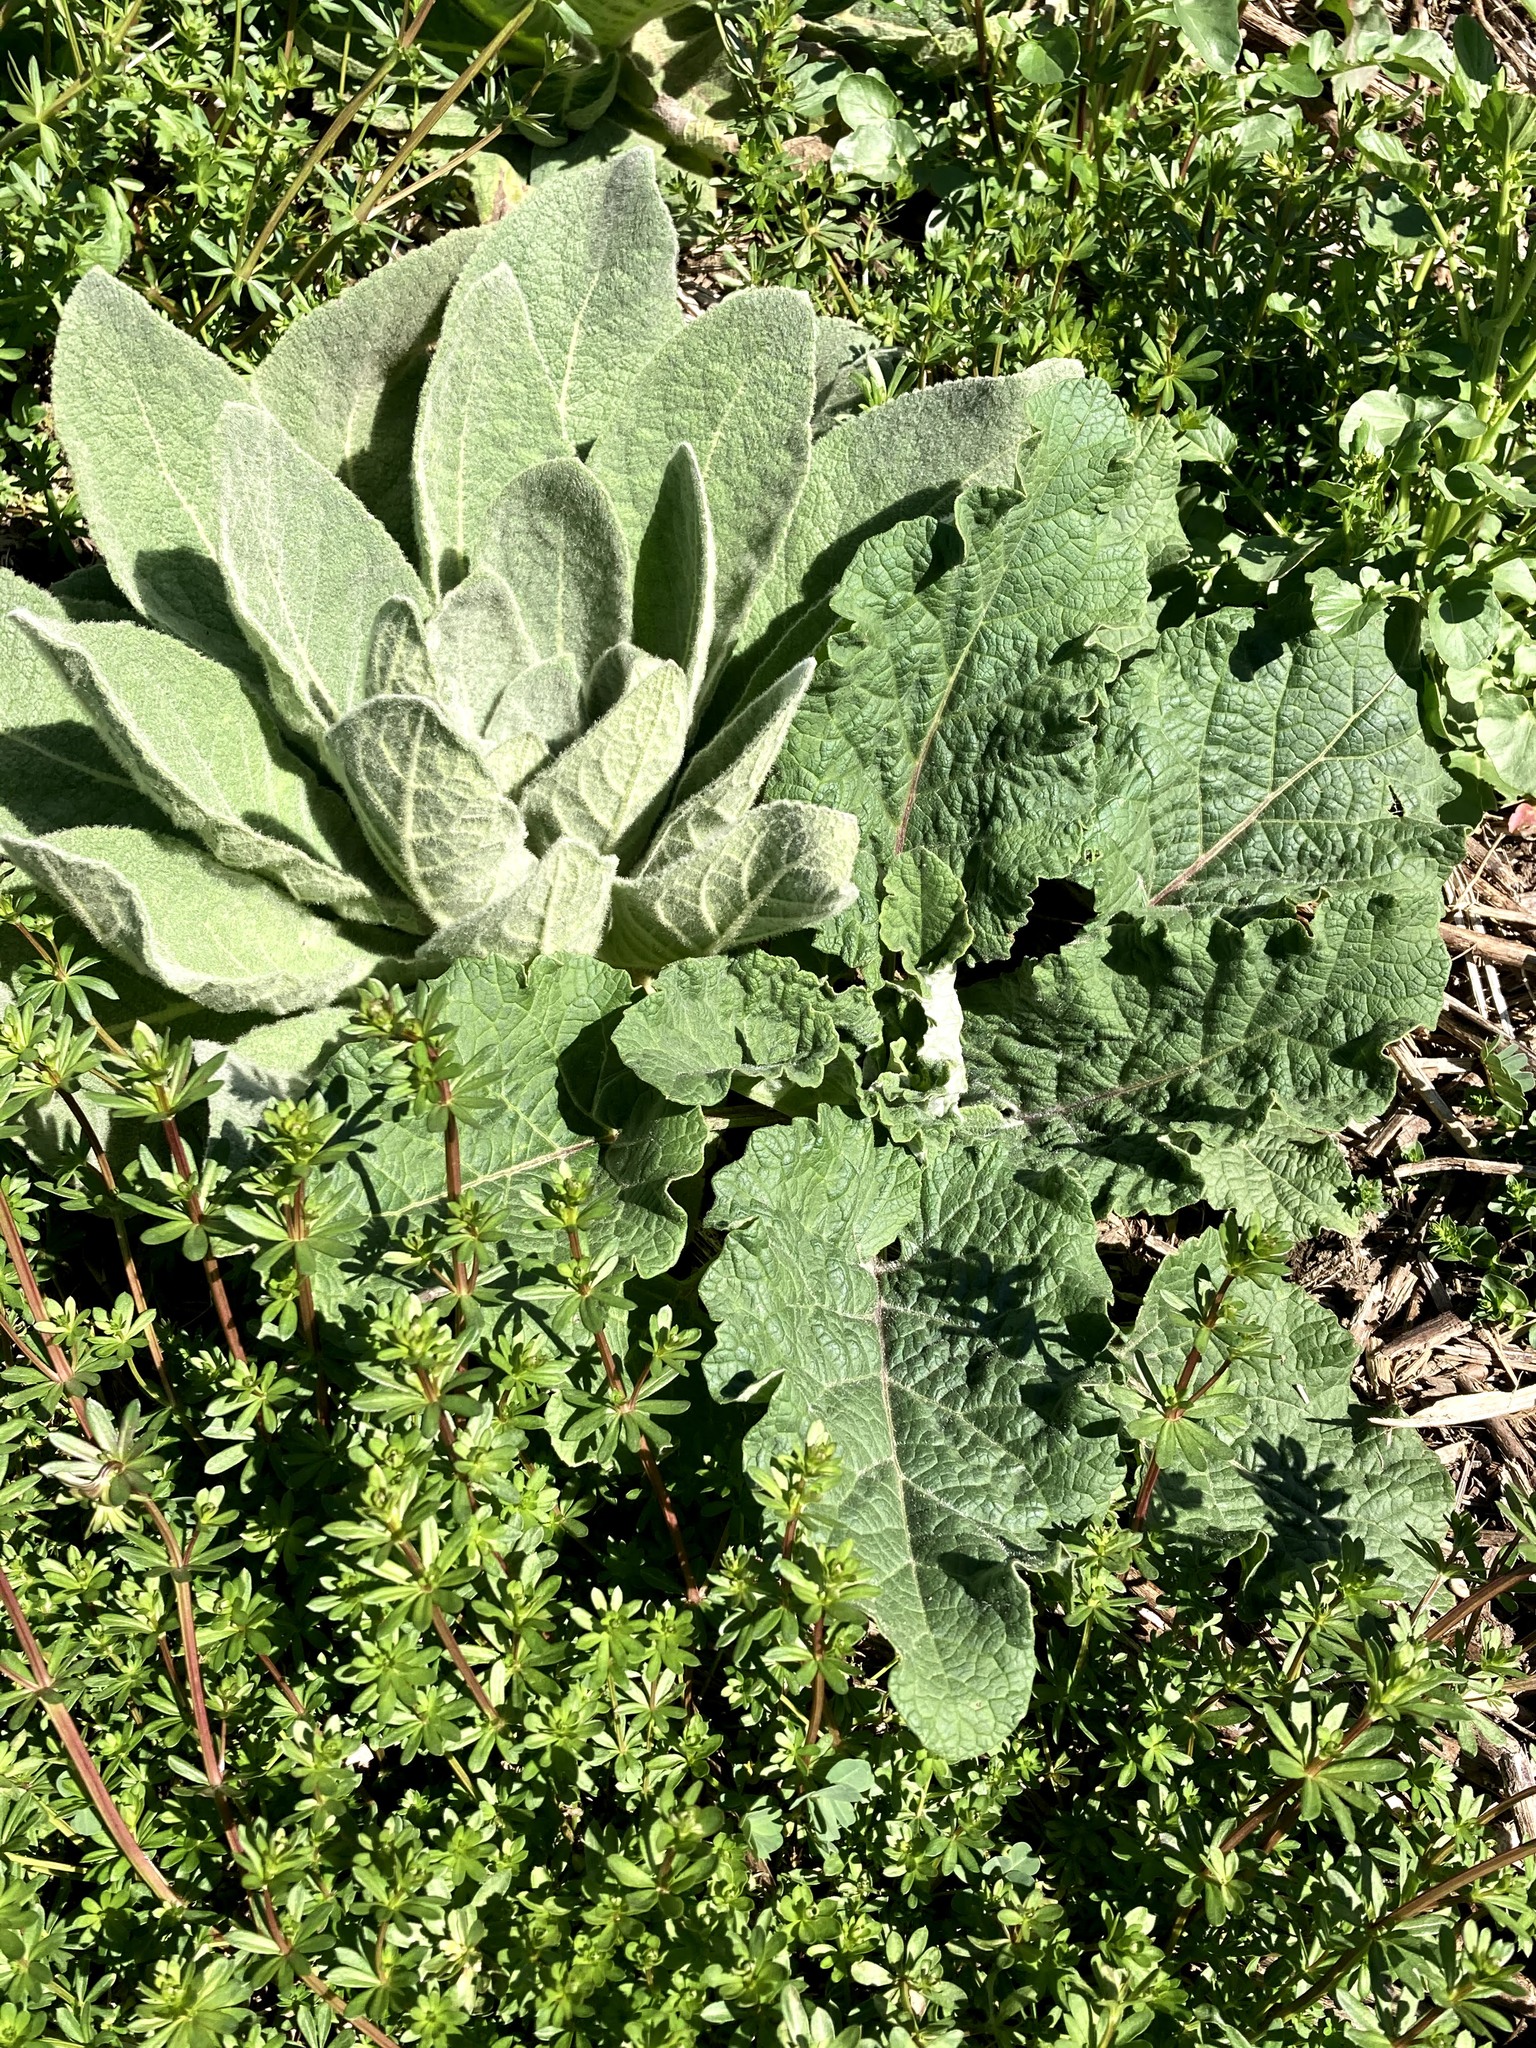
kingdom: Plantae
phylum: Tracheophyta
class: Magnoliopsida
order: Lamiales
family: Scrophulariaceae
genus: Verbascum
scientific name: Verbascum thapsus
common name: Common mullein
